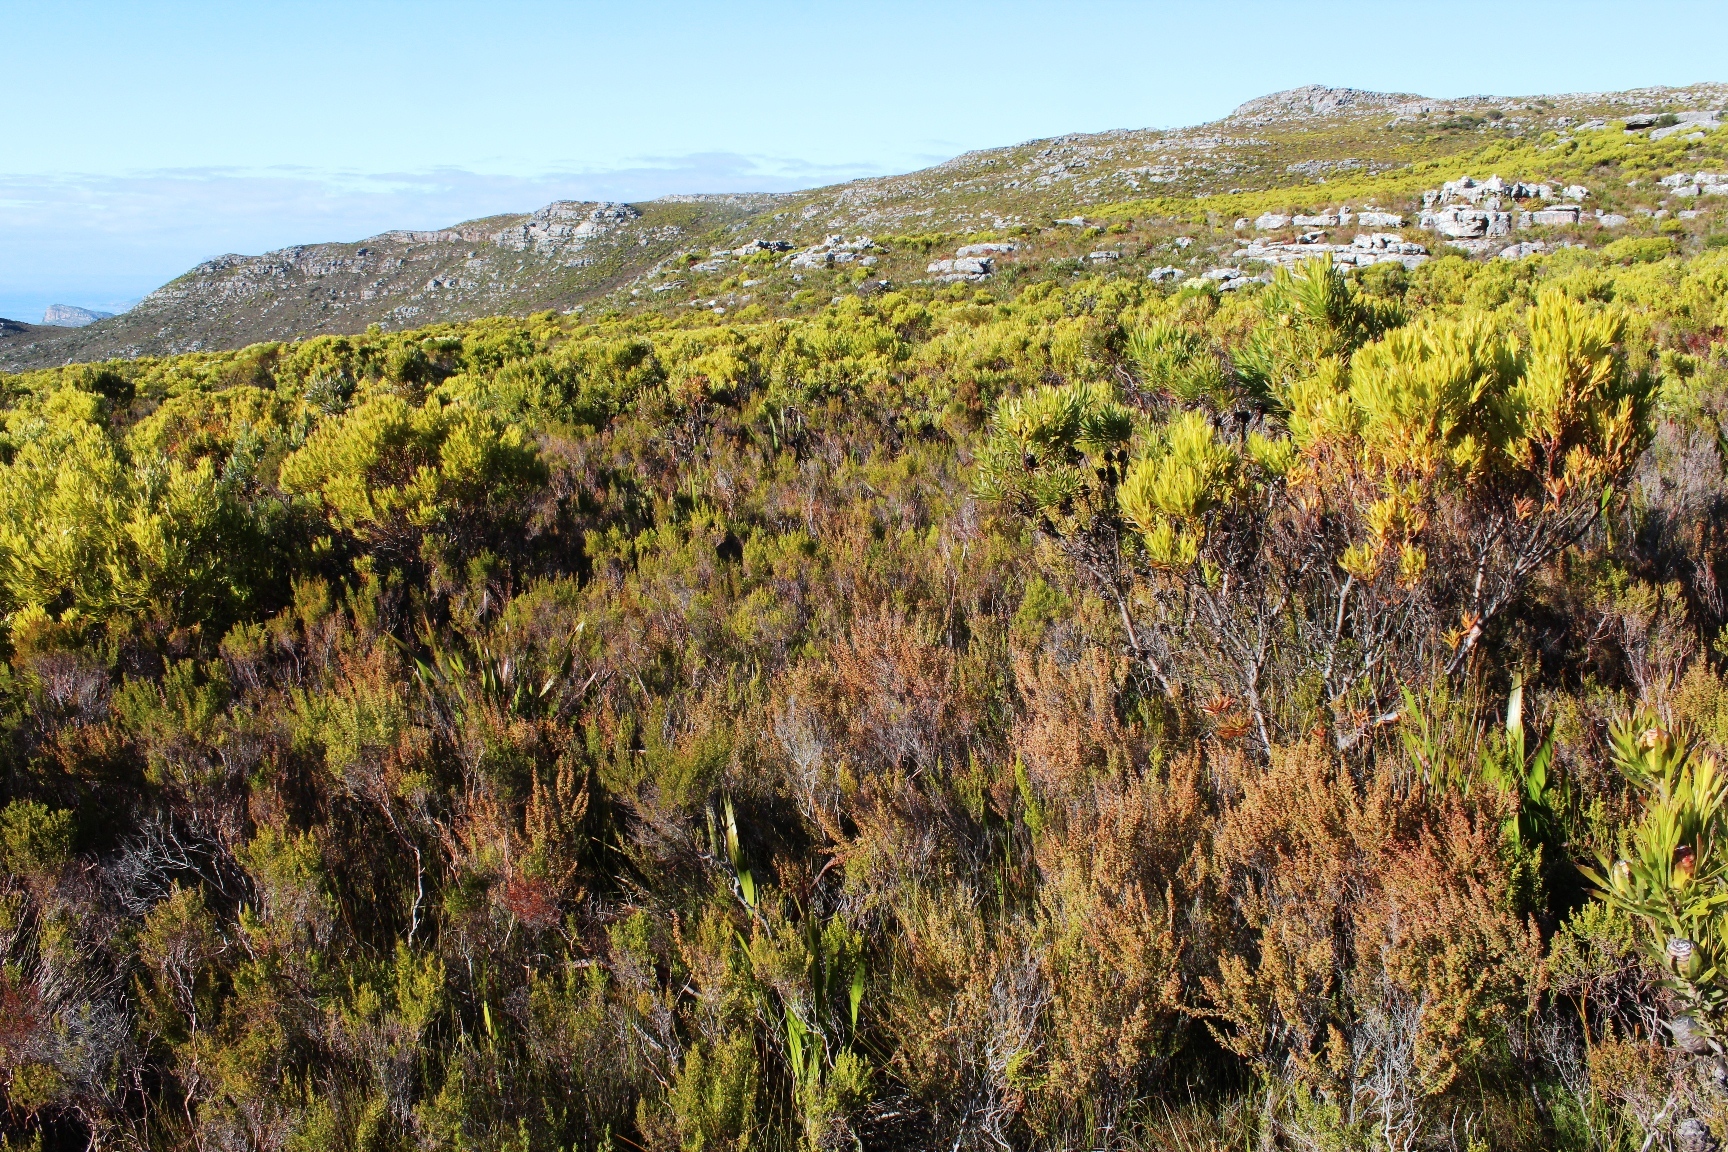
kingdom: Plantae
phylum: Tracheophyta
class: Magnoliopsida
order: Ericales
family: Ericaceae
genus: Erica
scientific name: Erica hispidula
